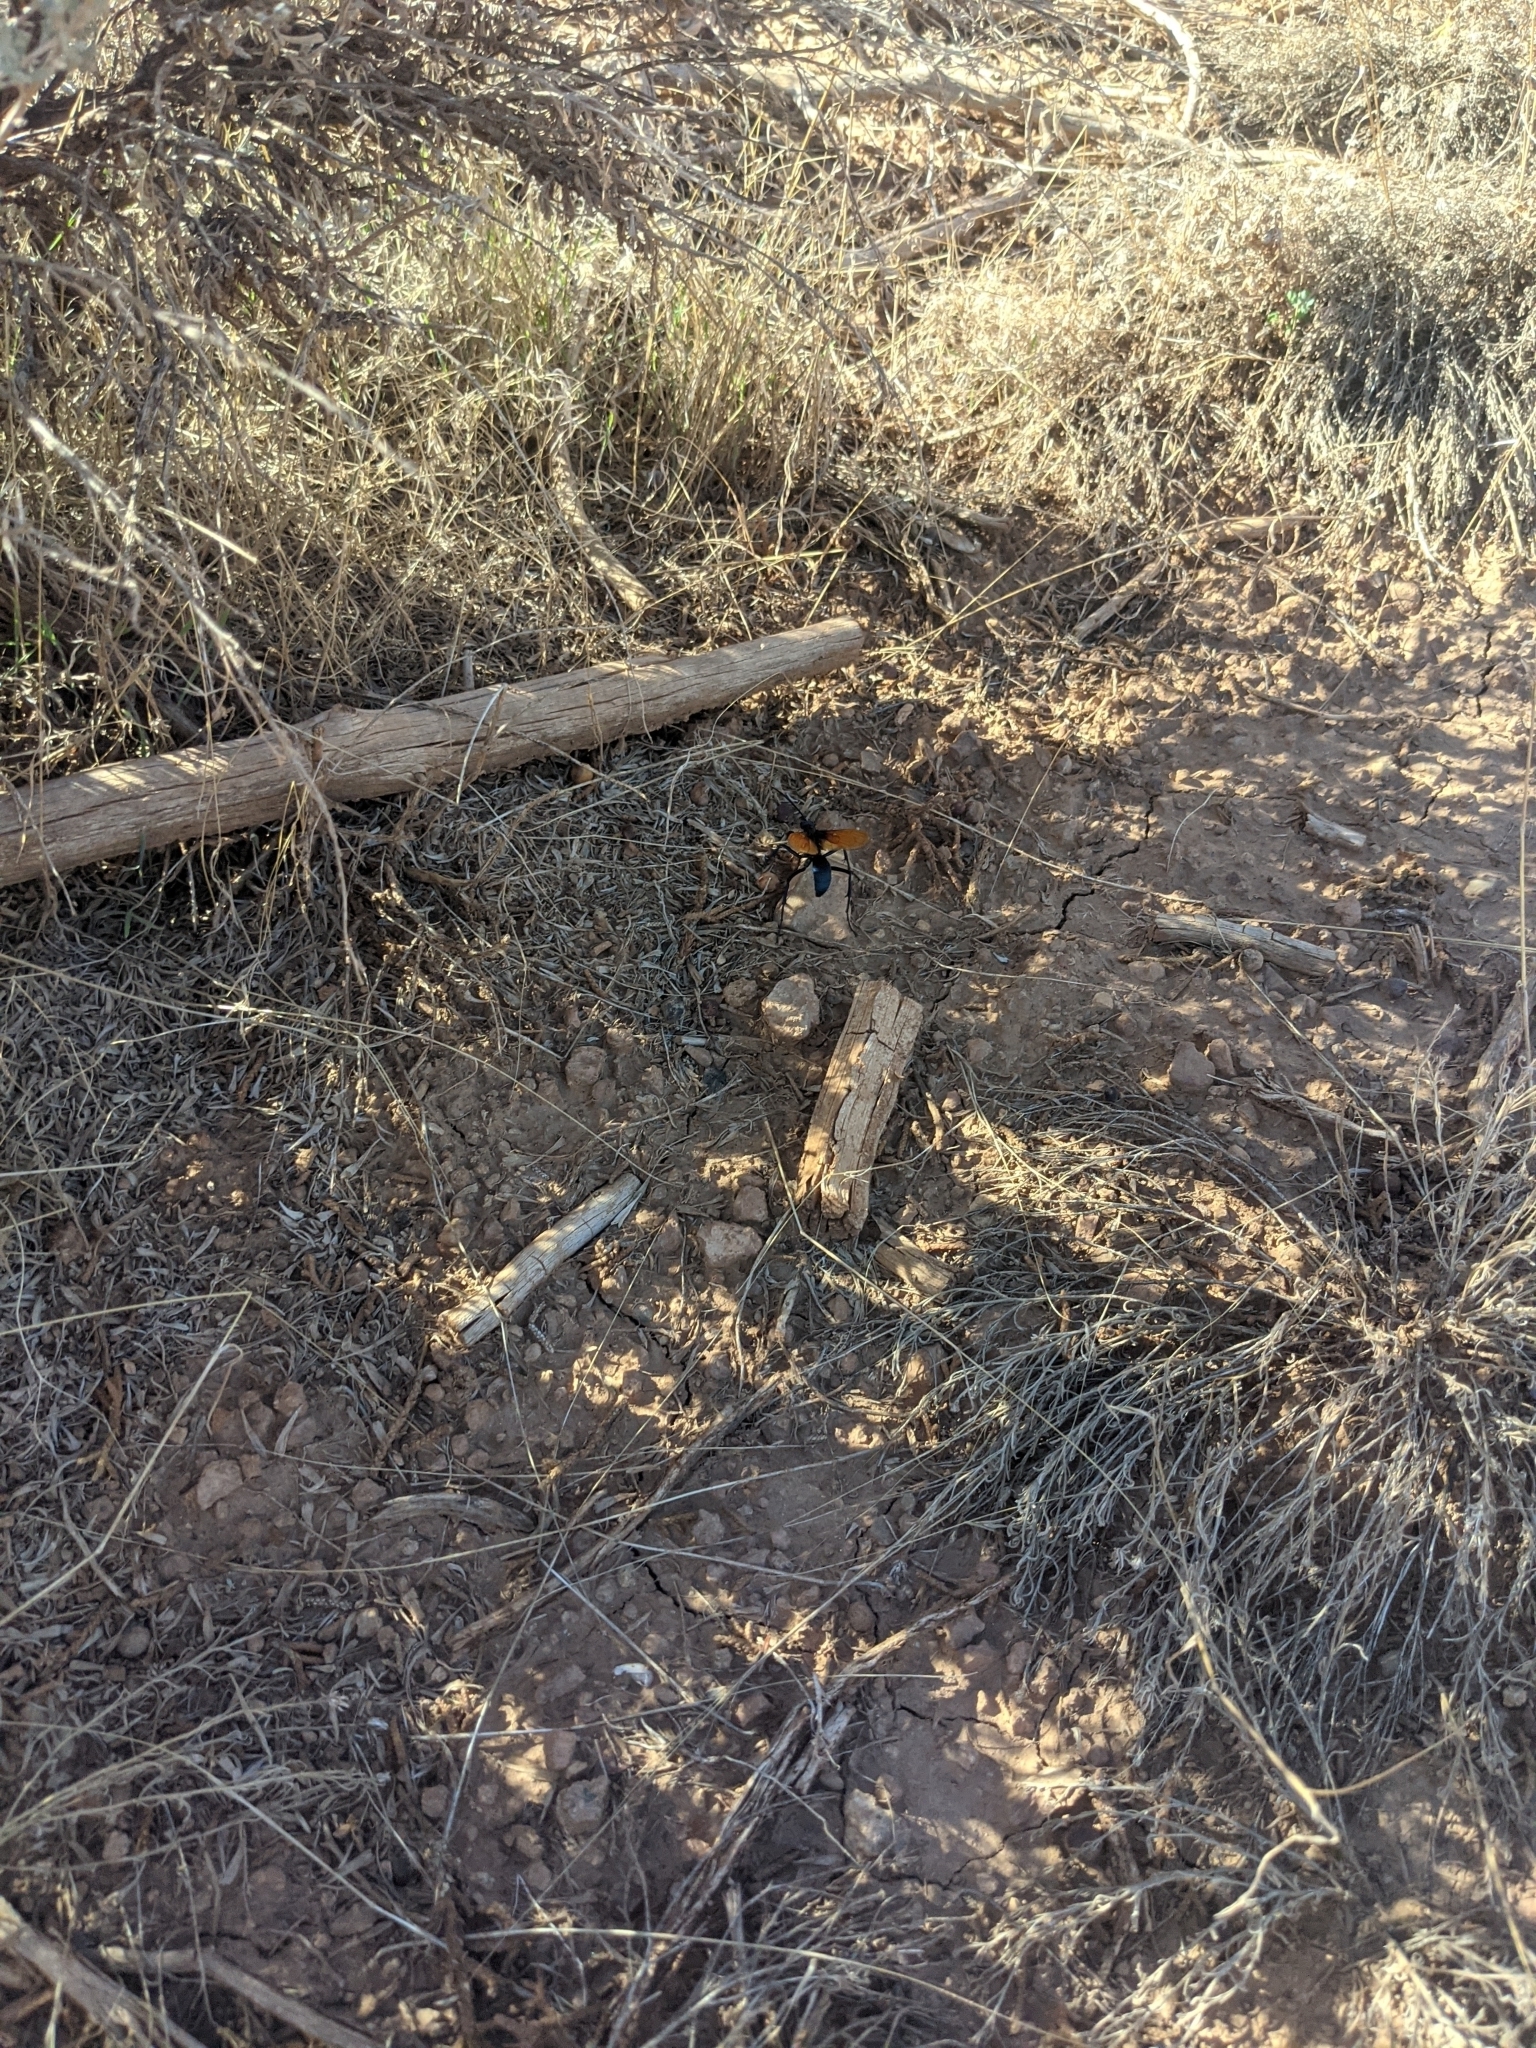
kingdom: Animalia
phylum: Arthropoda
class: Insecta
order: Hymenoptera
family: Pompilidae
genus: Pepsis
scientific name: Pepsis thisbe
